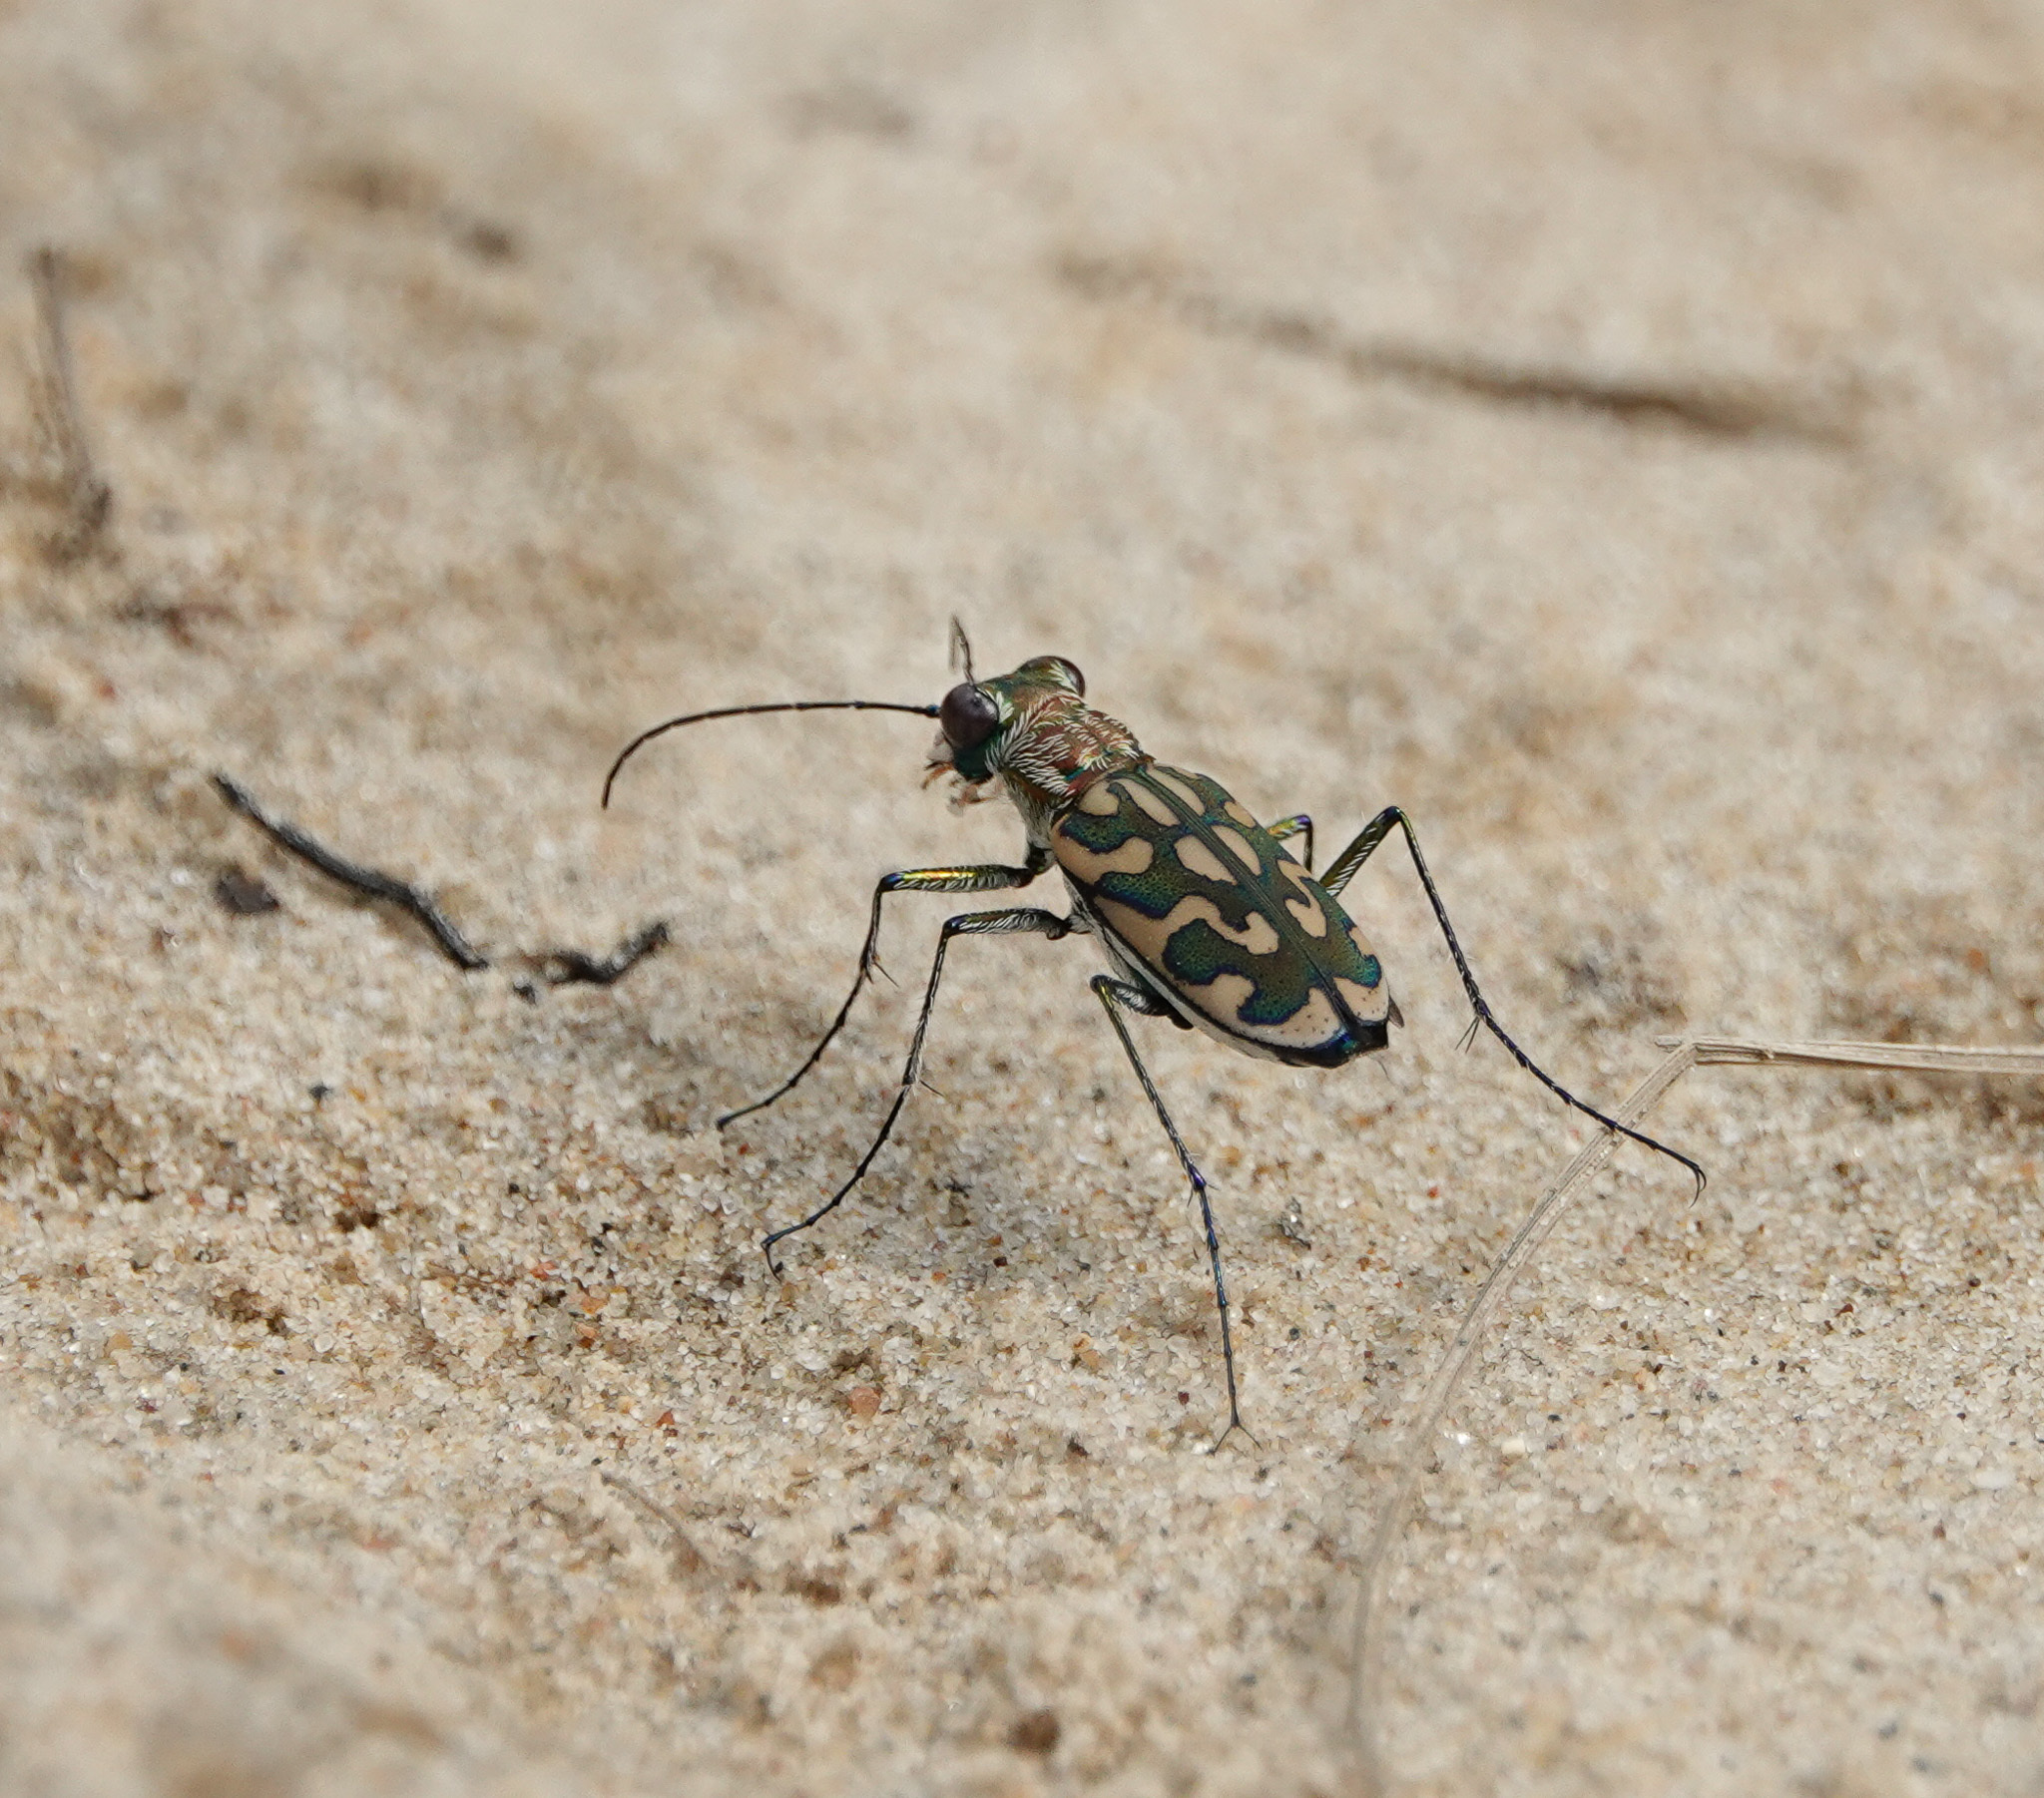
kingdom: Animalia
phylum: Arthropoda
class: Insecta
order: Coleoptera
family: Carabidae
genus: Lophyra
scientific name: Lophyra cancellata
